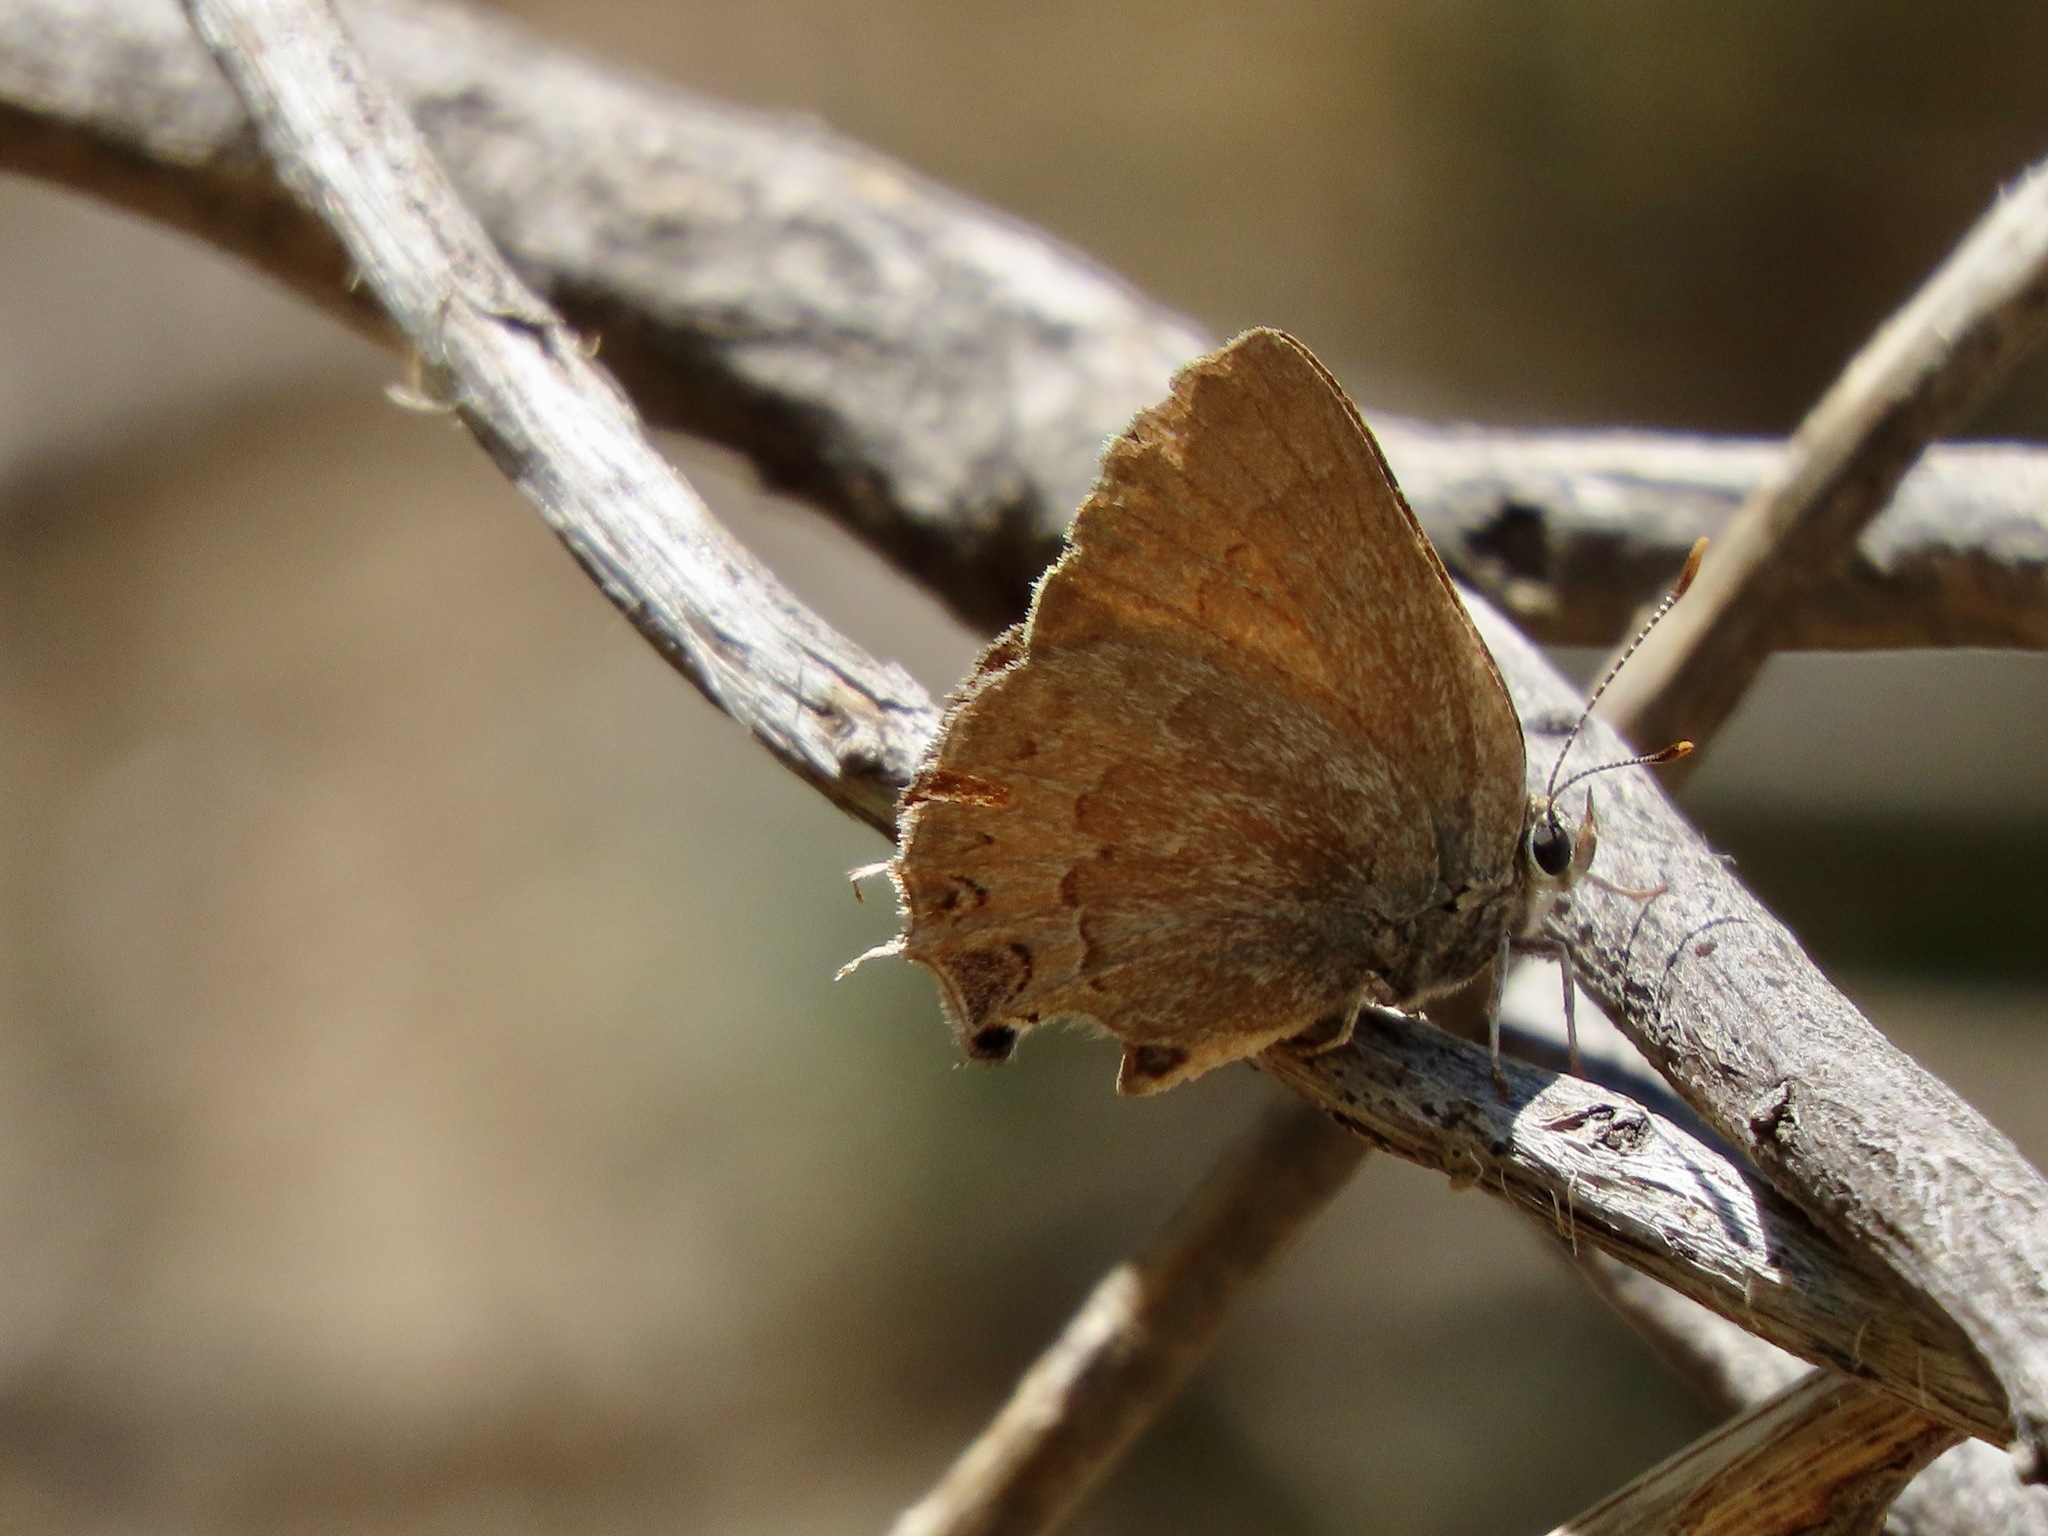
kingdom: Animalia
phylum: Arthropoda
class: Insecta
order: Lepidoptera
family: Lycaenidae
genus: Strymon
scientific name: Strymon saepium
